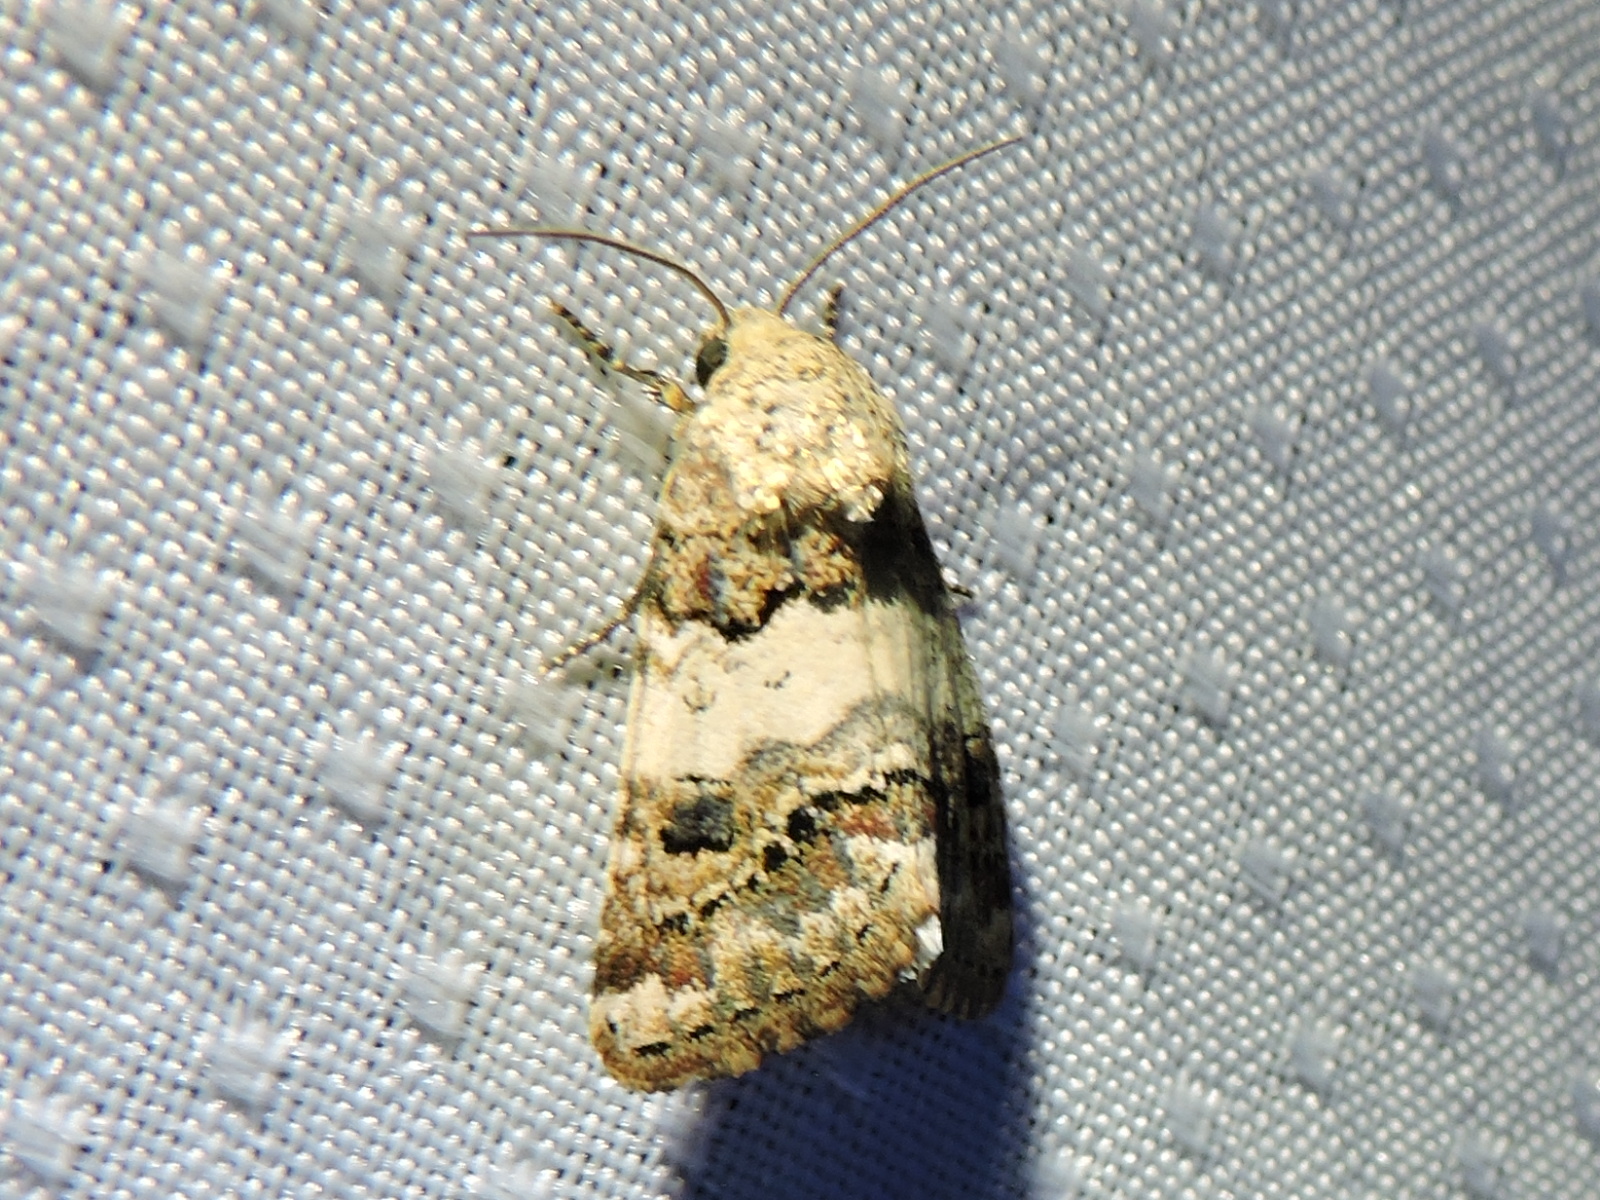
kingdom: Animalia
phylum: Arthropoda
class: Insecta
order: Lepidoptera
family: Noctuidae
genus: Schinia
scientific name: Schinia tertia
